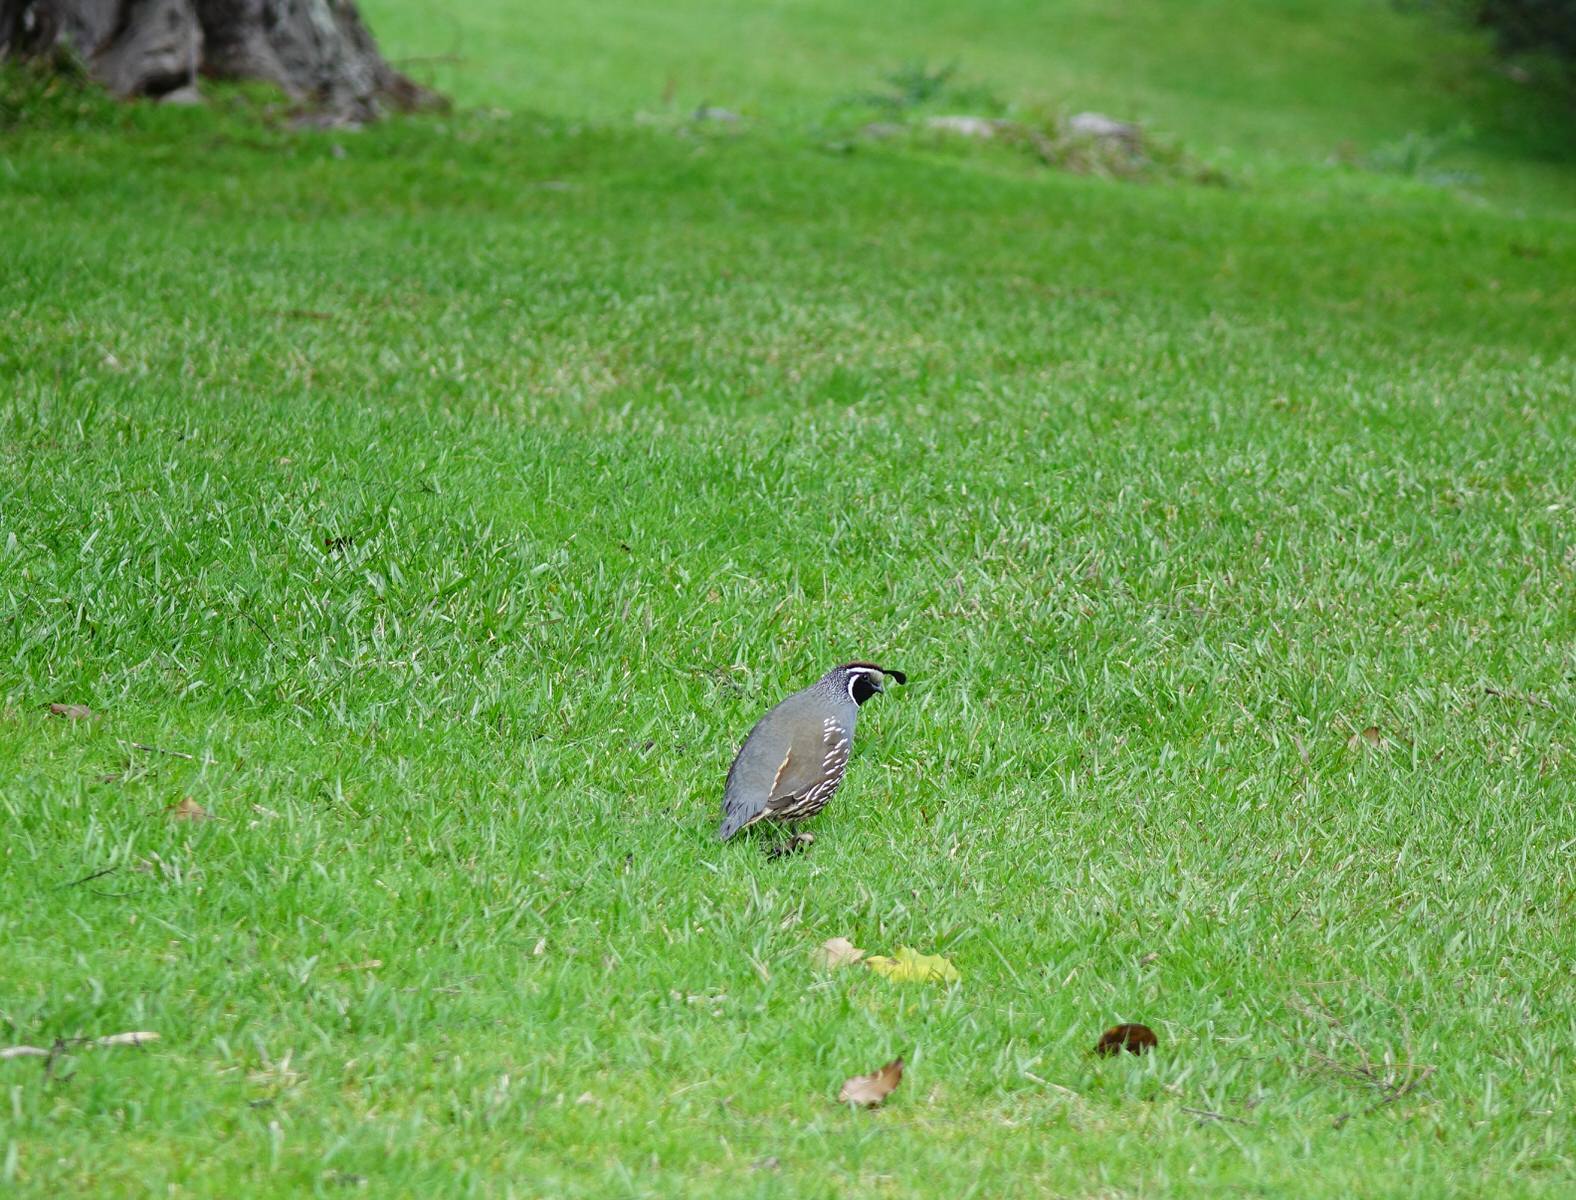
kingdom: Animalia
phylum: Chordata
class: Aves
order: Galliformes
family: Odontophoridae
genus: Callipepla
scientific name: Callipepla californica
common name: California quail
